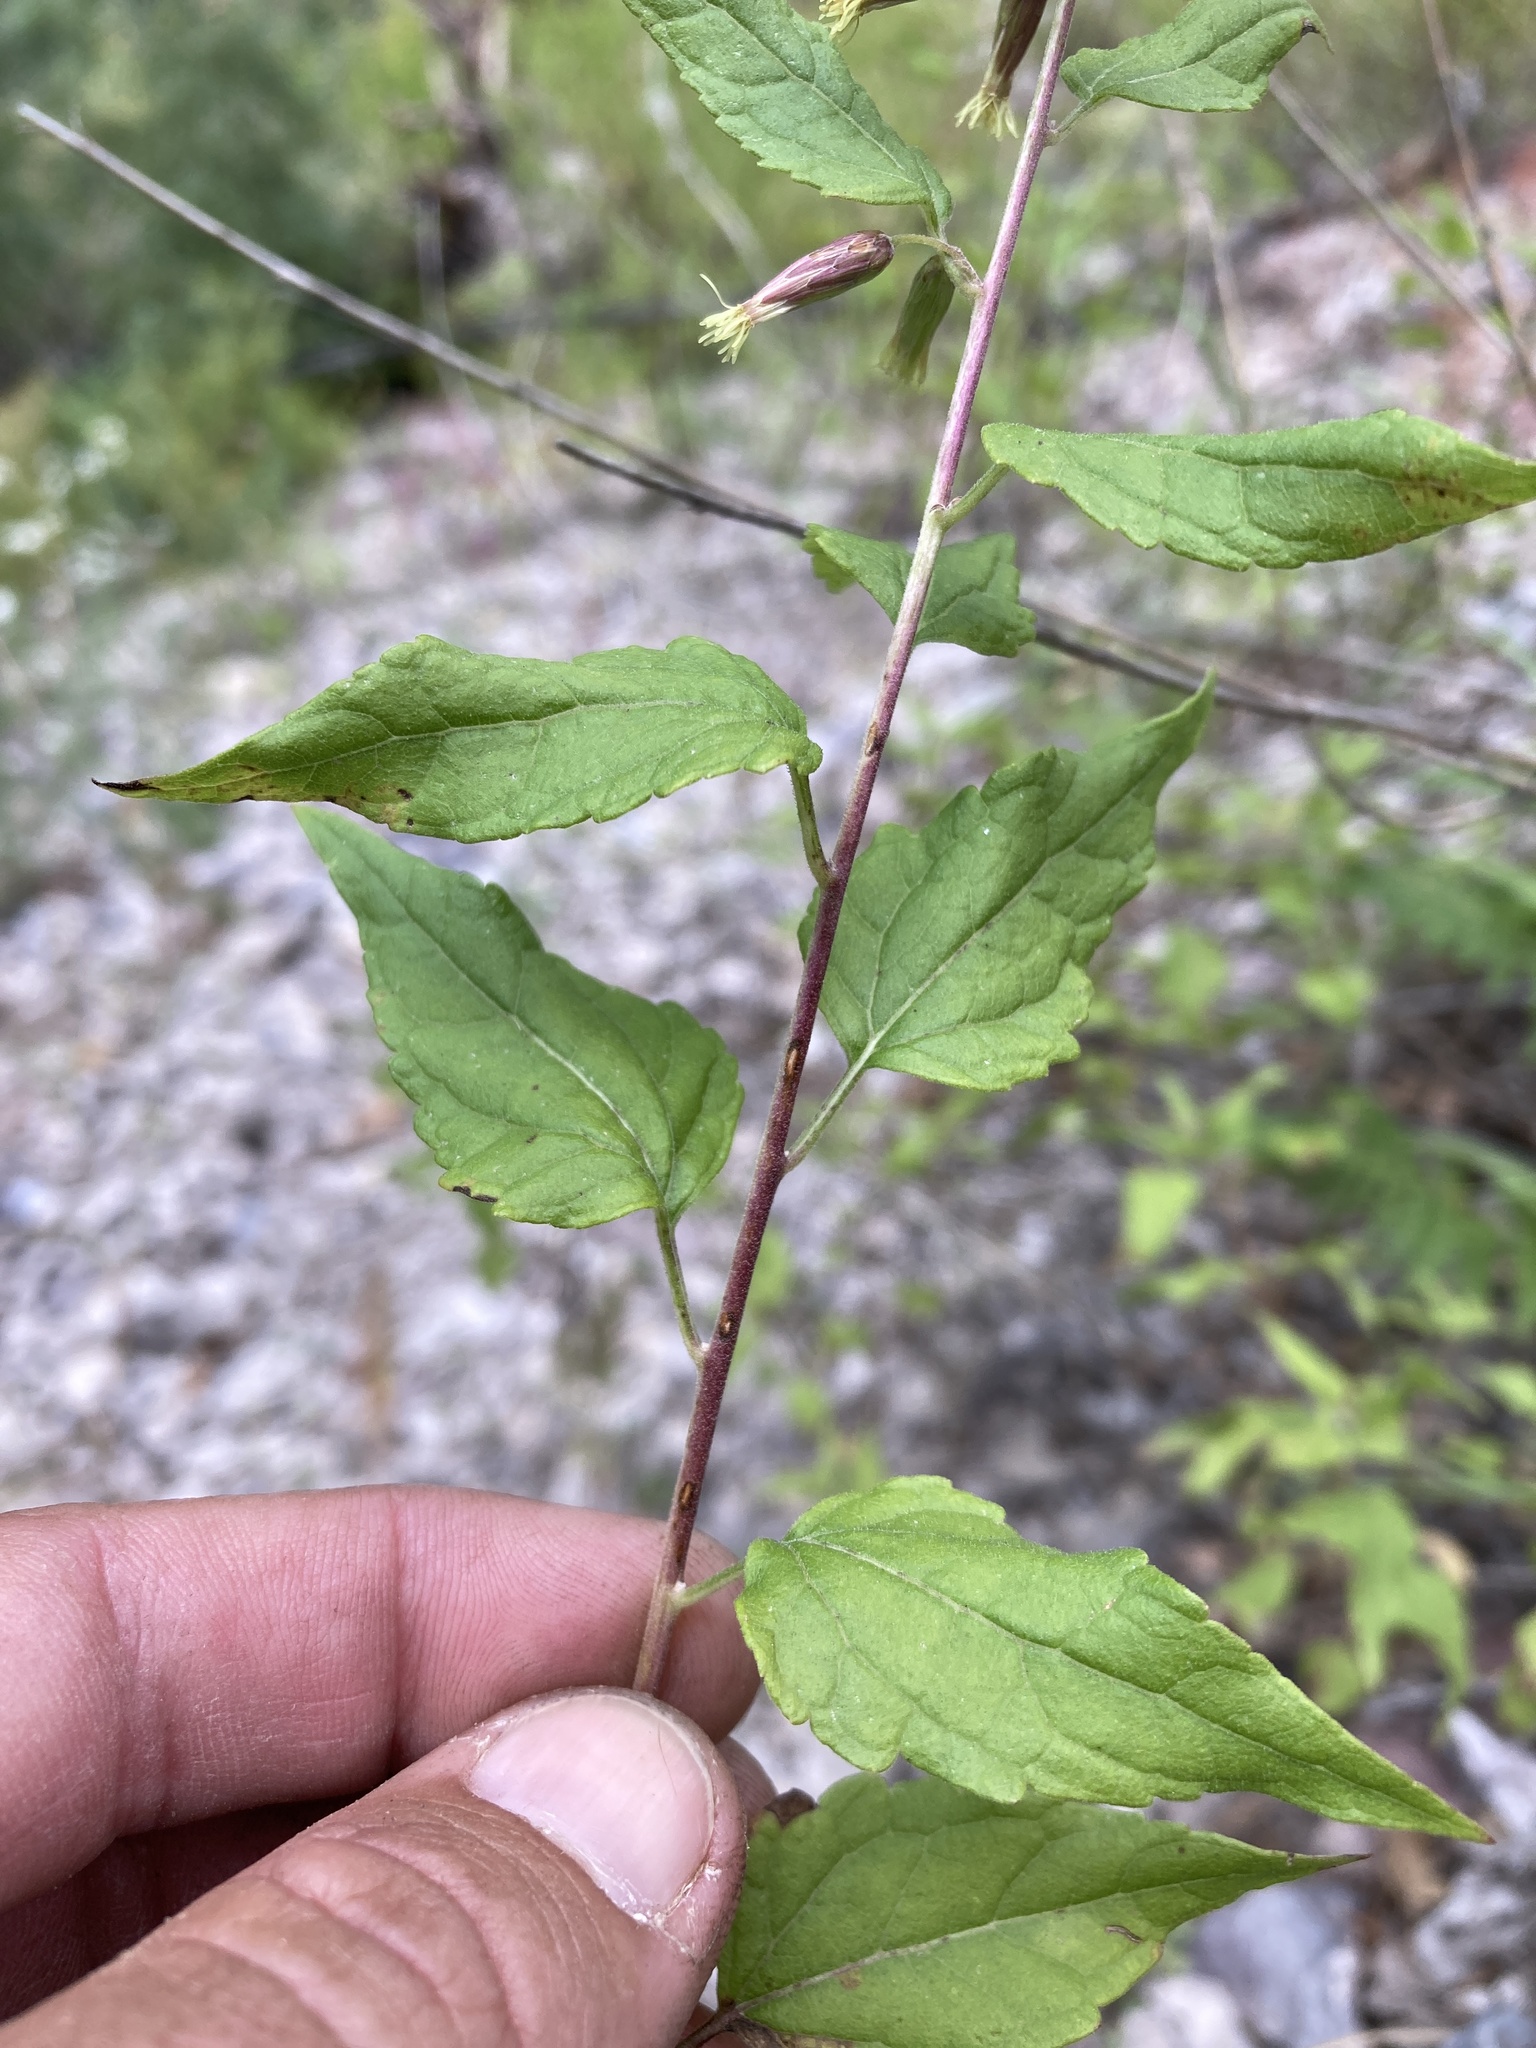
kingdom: Plantae
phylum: Tracheophyta
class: Magnoliopsida
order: Asterales
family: Asteraceae
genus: Brickellia
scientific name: Brickellia rusbyi
